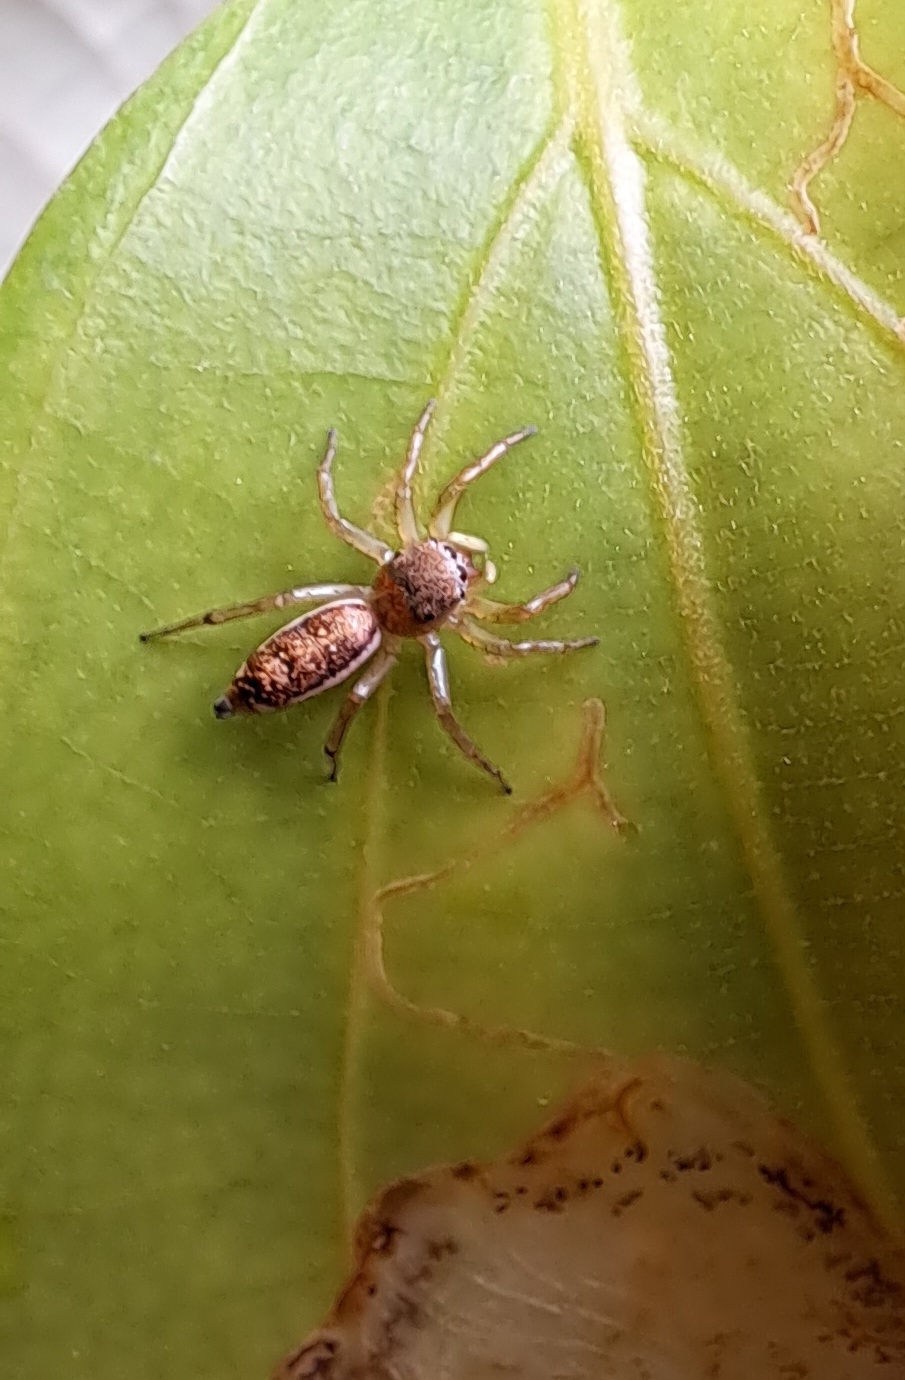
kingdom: Animalia
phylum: Arthropoda
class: Arachnida
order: Araneae
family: Salticidae
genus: Cosmophasis
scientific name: Cosmophasis lami
